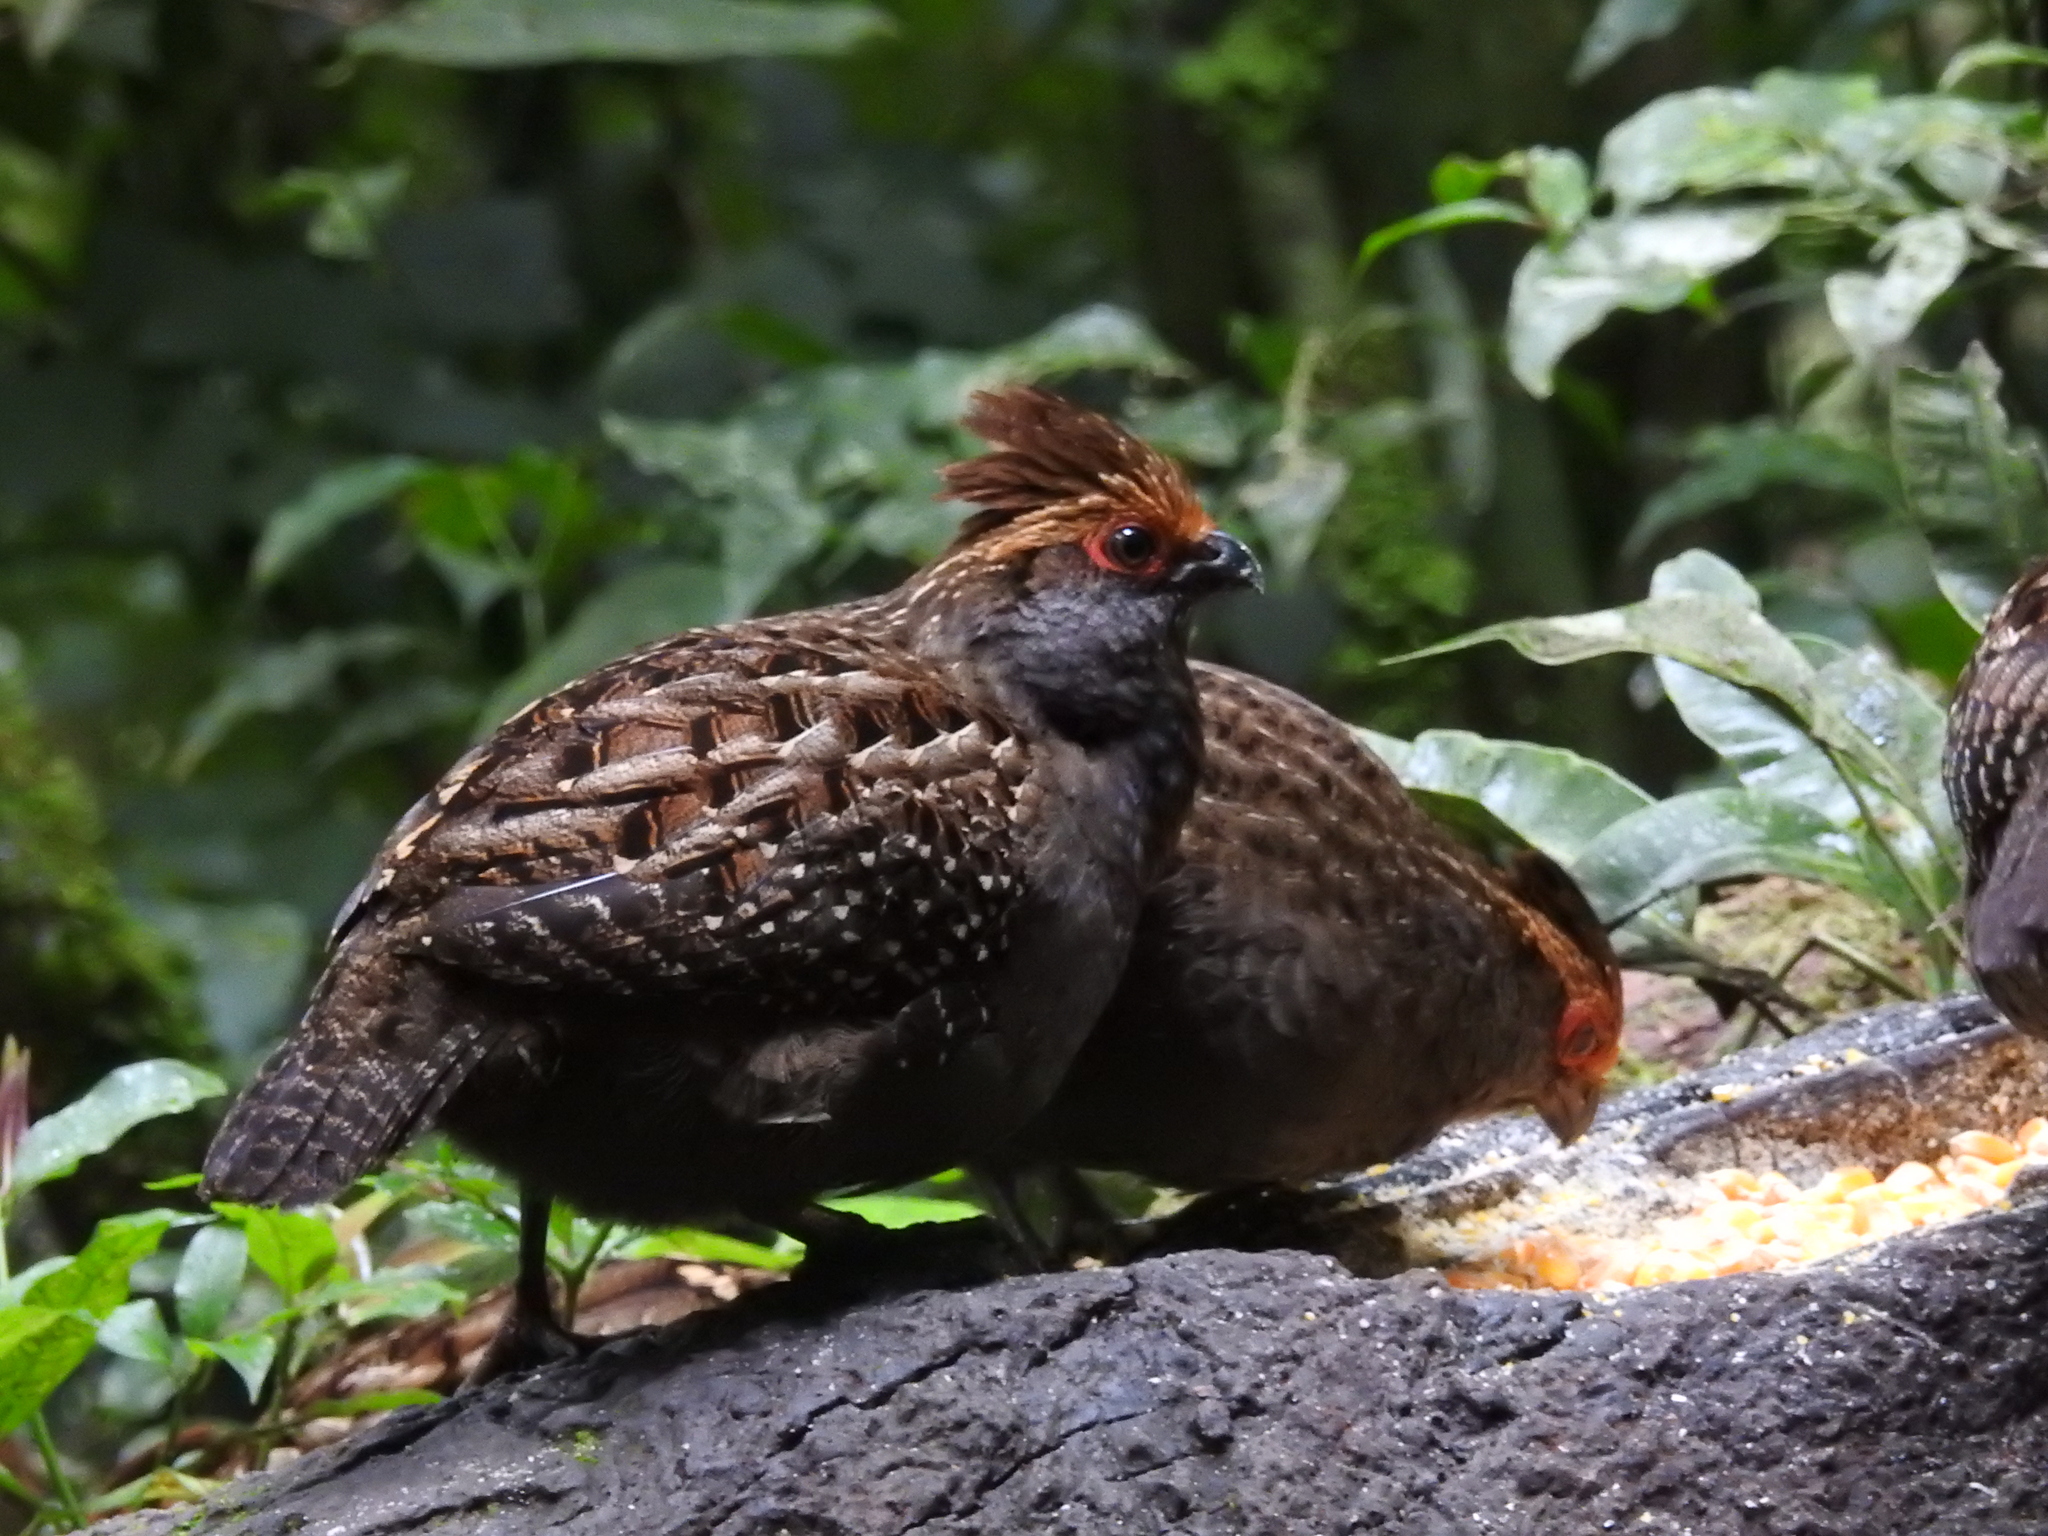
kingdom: Animalia
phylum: Chordata
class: Aves
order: Galliformes
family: Odontophoridae
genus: Odontophorus
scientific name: Odontophorus capueira
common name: Spot-winged wood quail
